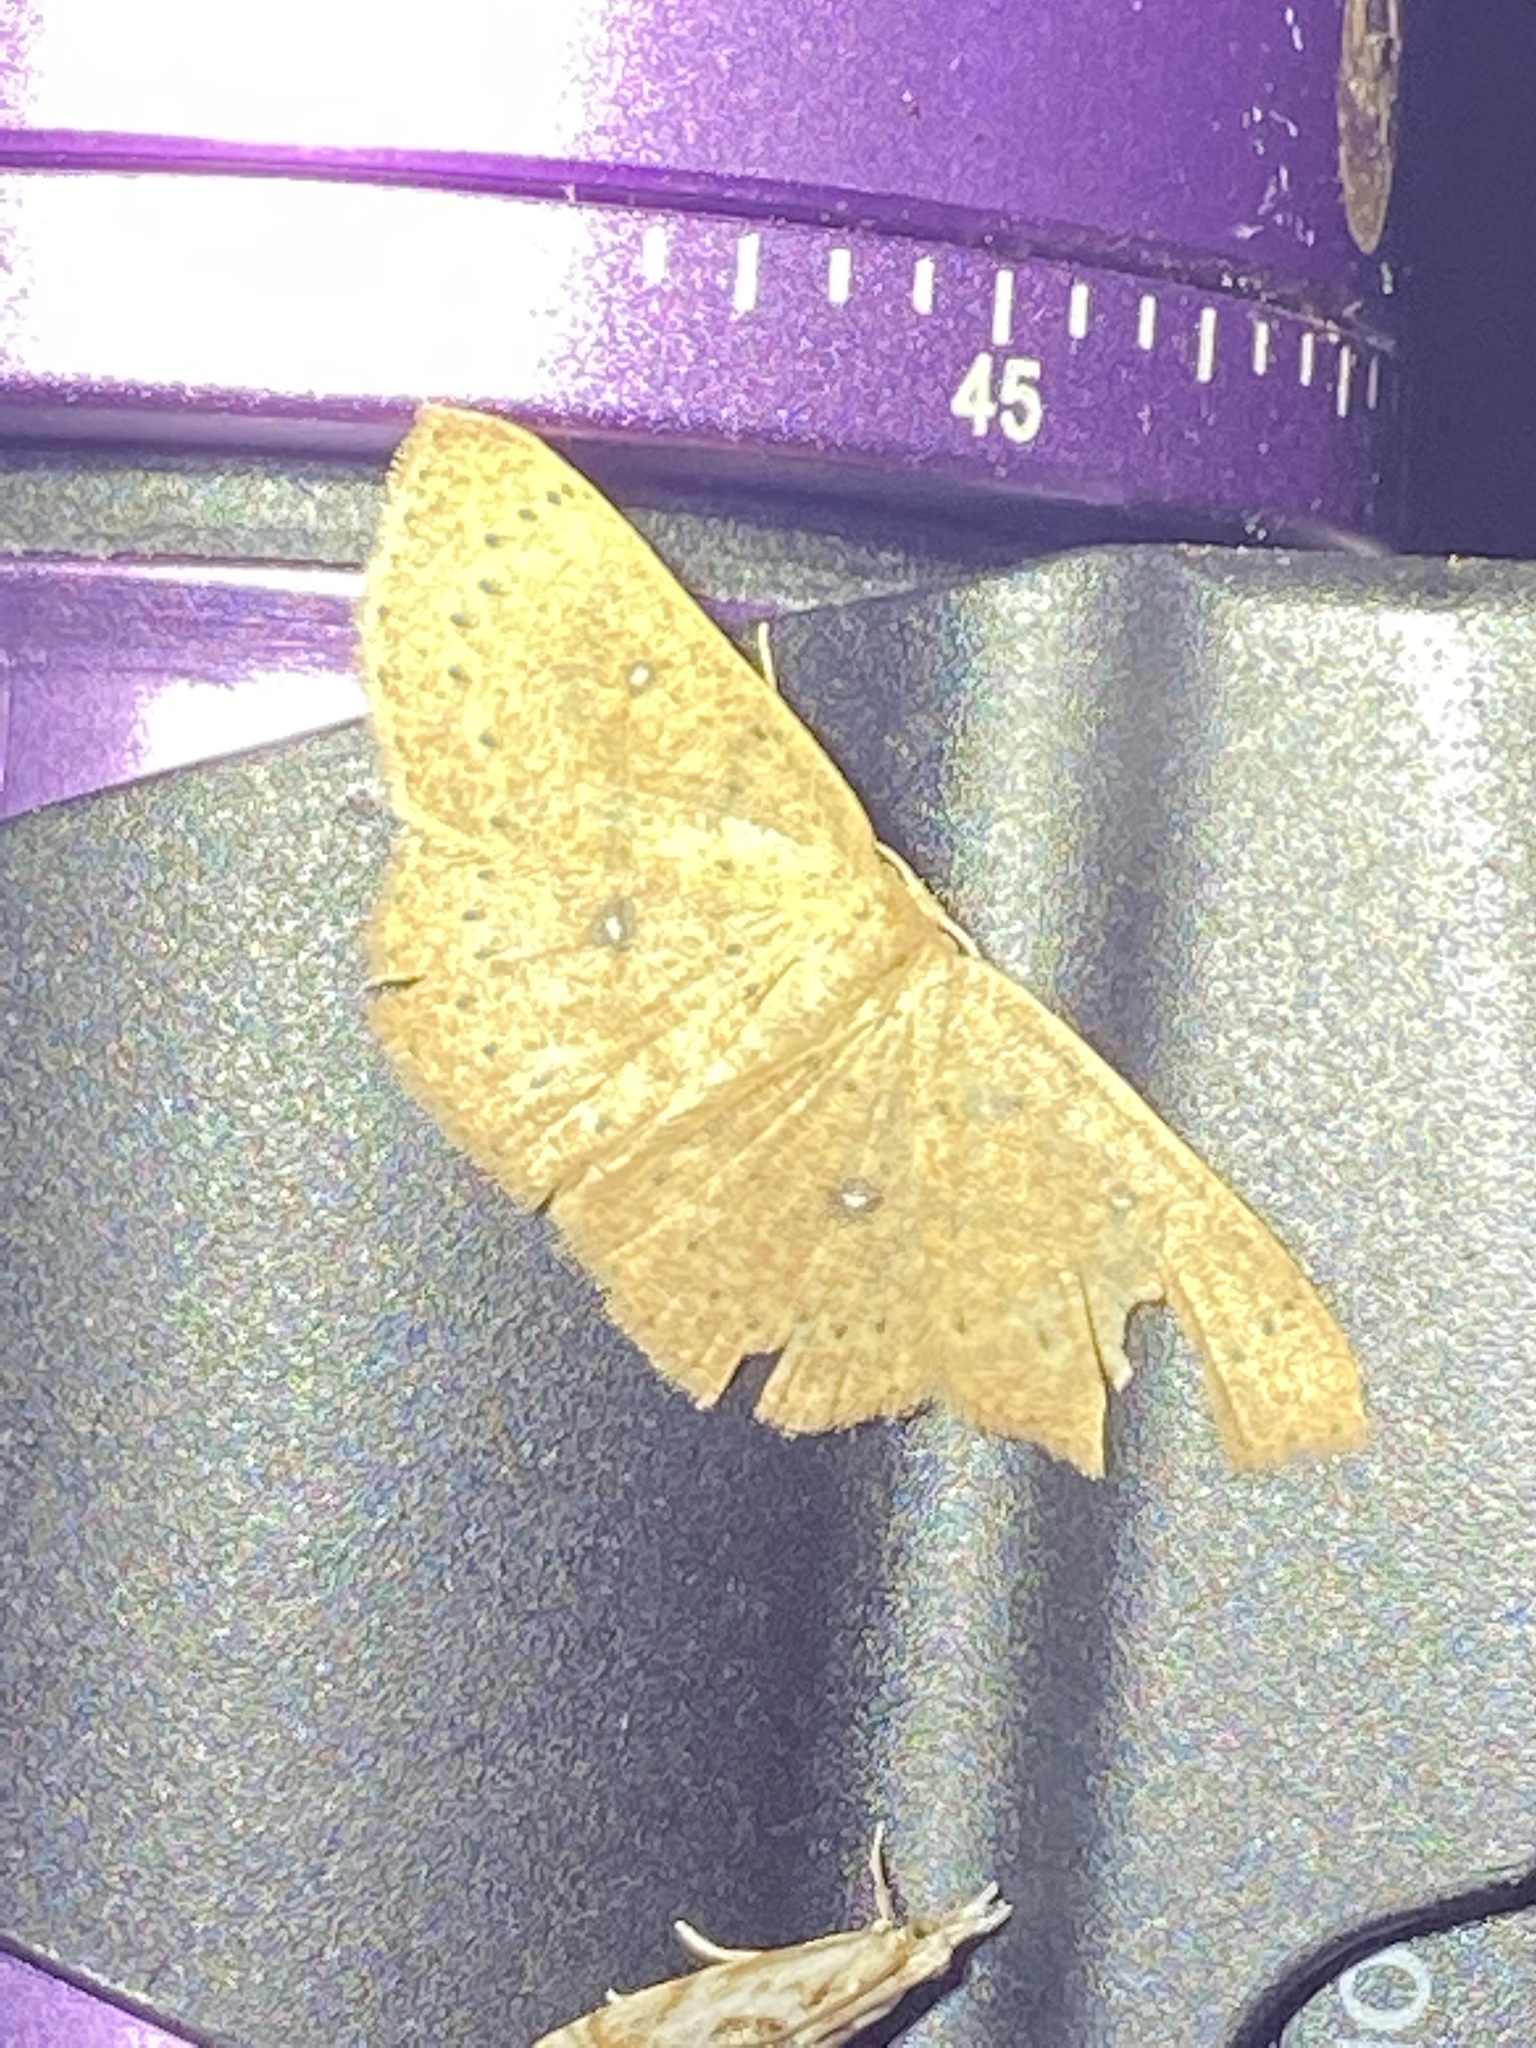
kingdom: Animalia
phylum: Arthropoda
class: Insecta
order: Lepidoptera
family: Geometridae
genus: Cyclophora
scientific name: Cyclophora packardi
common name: Packard's wave
